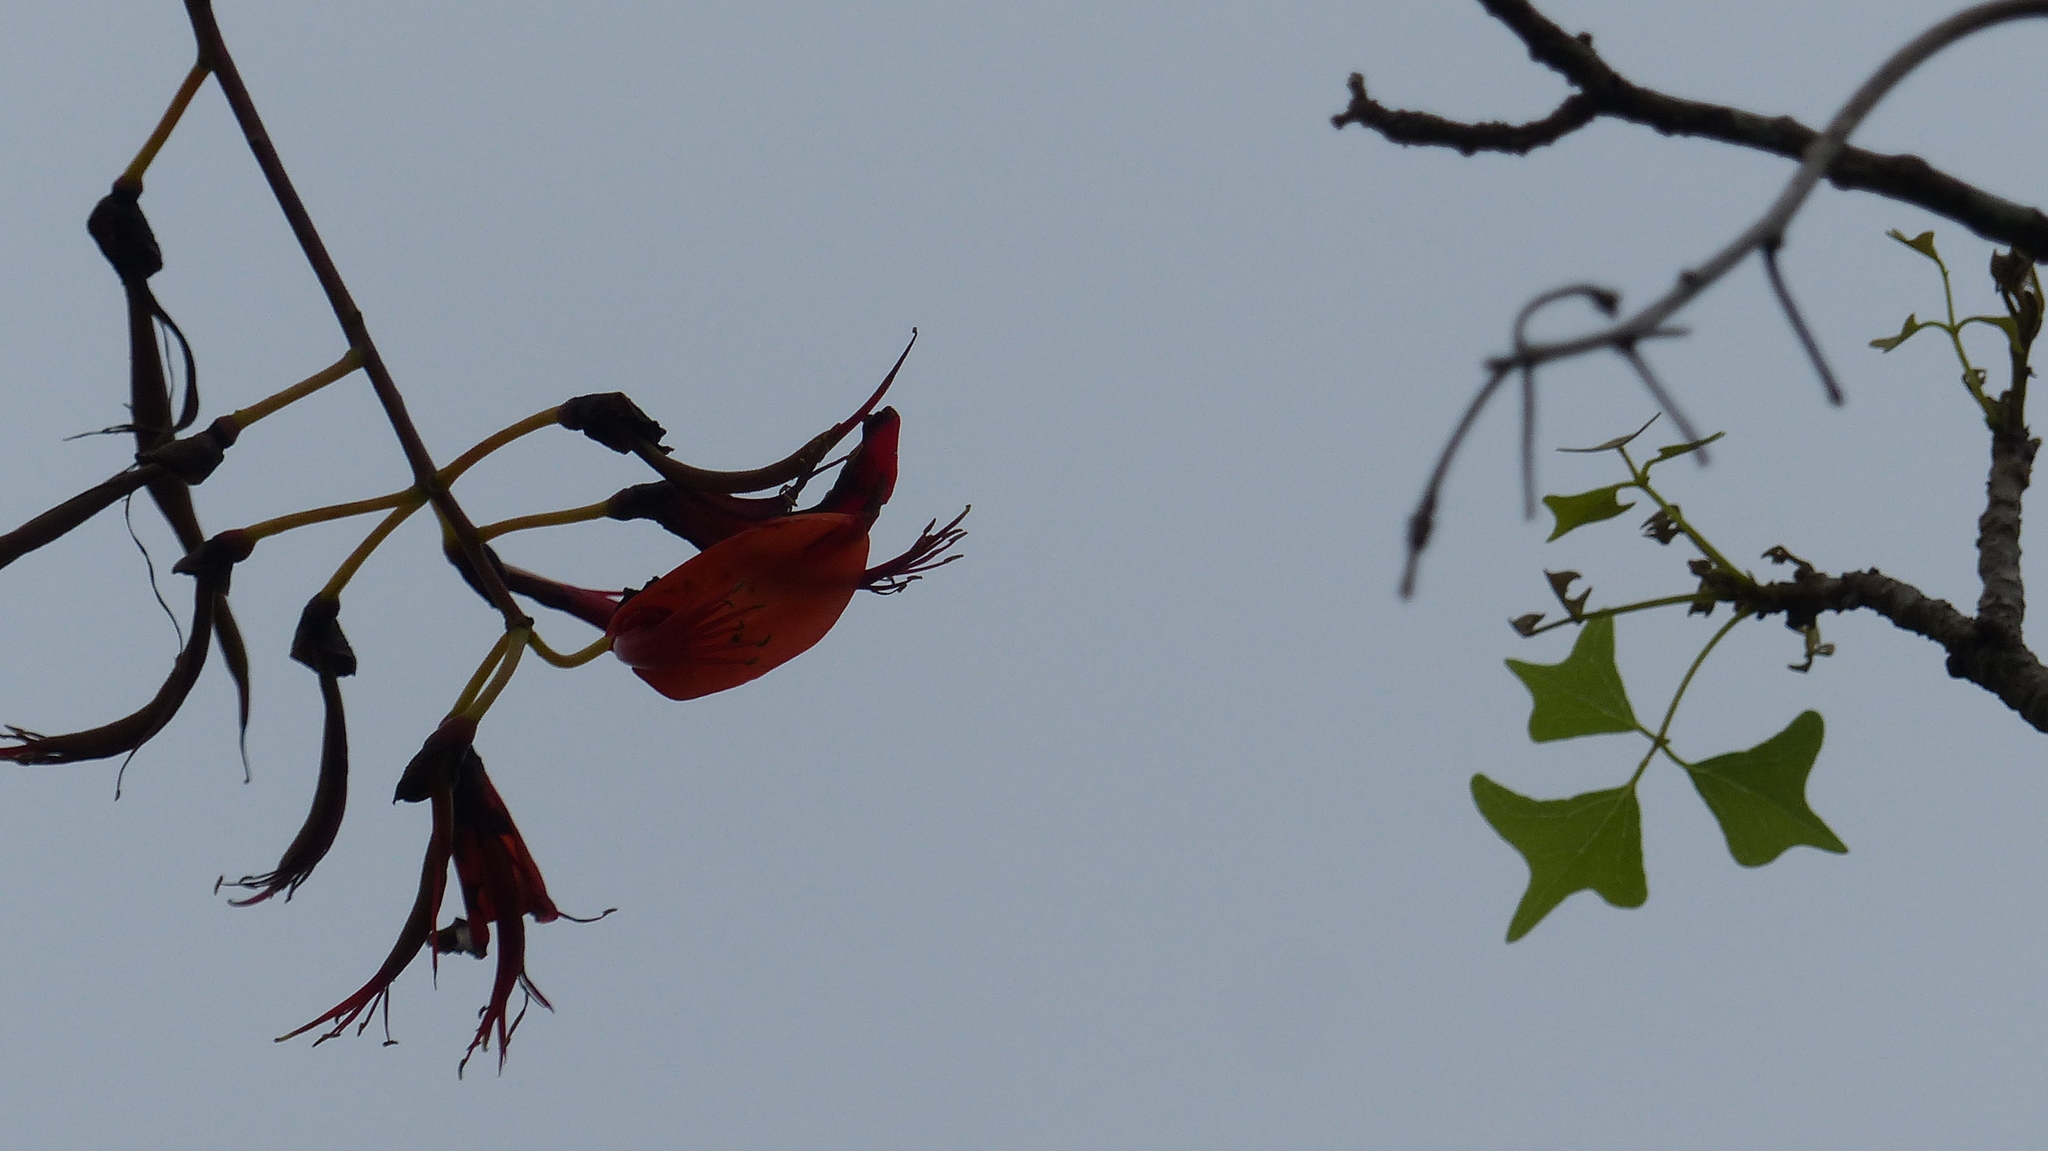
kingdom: Plantae
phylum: Tracheophyta
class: Magnoliopsida
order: Fabales
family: Fabaceae
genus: Erythrina
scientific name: Erythrina vespertilio
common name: Bat-wing coral tree
